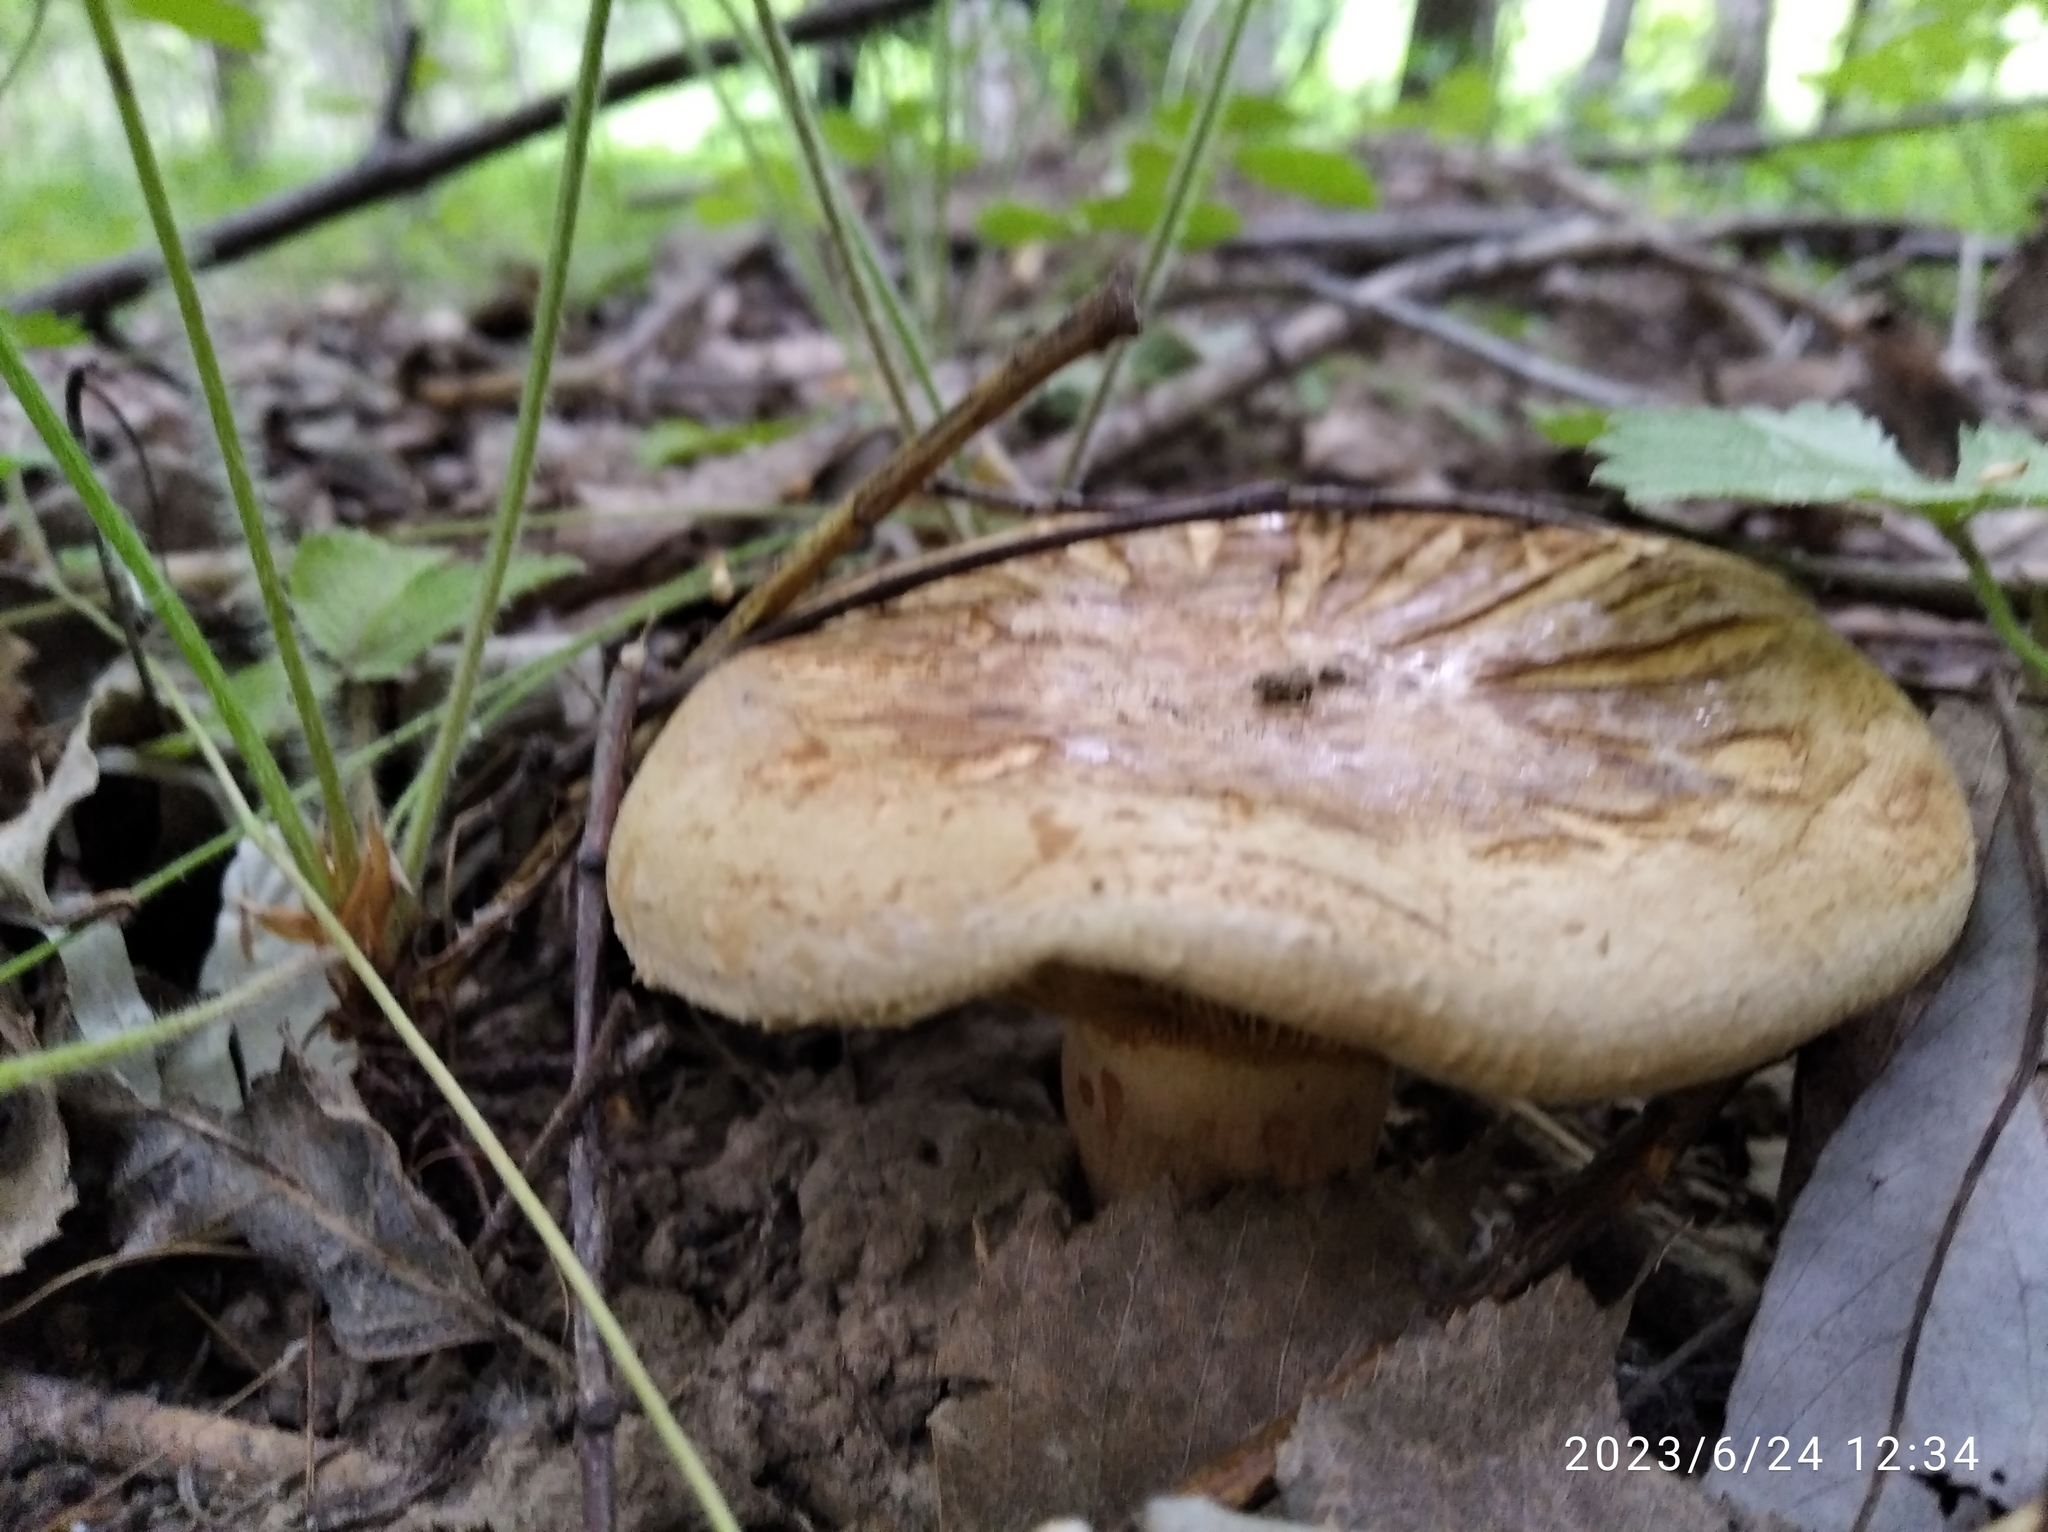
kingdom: Fungi
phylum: Basidiomycota
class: Agaricomycetes
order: Boletales
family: Paxillaceae
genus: Paxillus
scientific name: Paxillus involutus
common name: Brown roll rim
